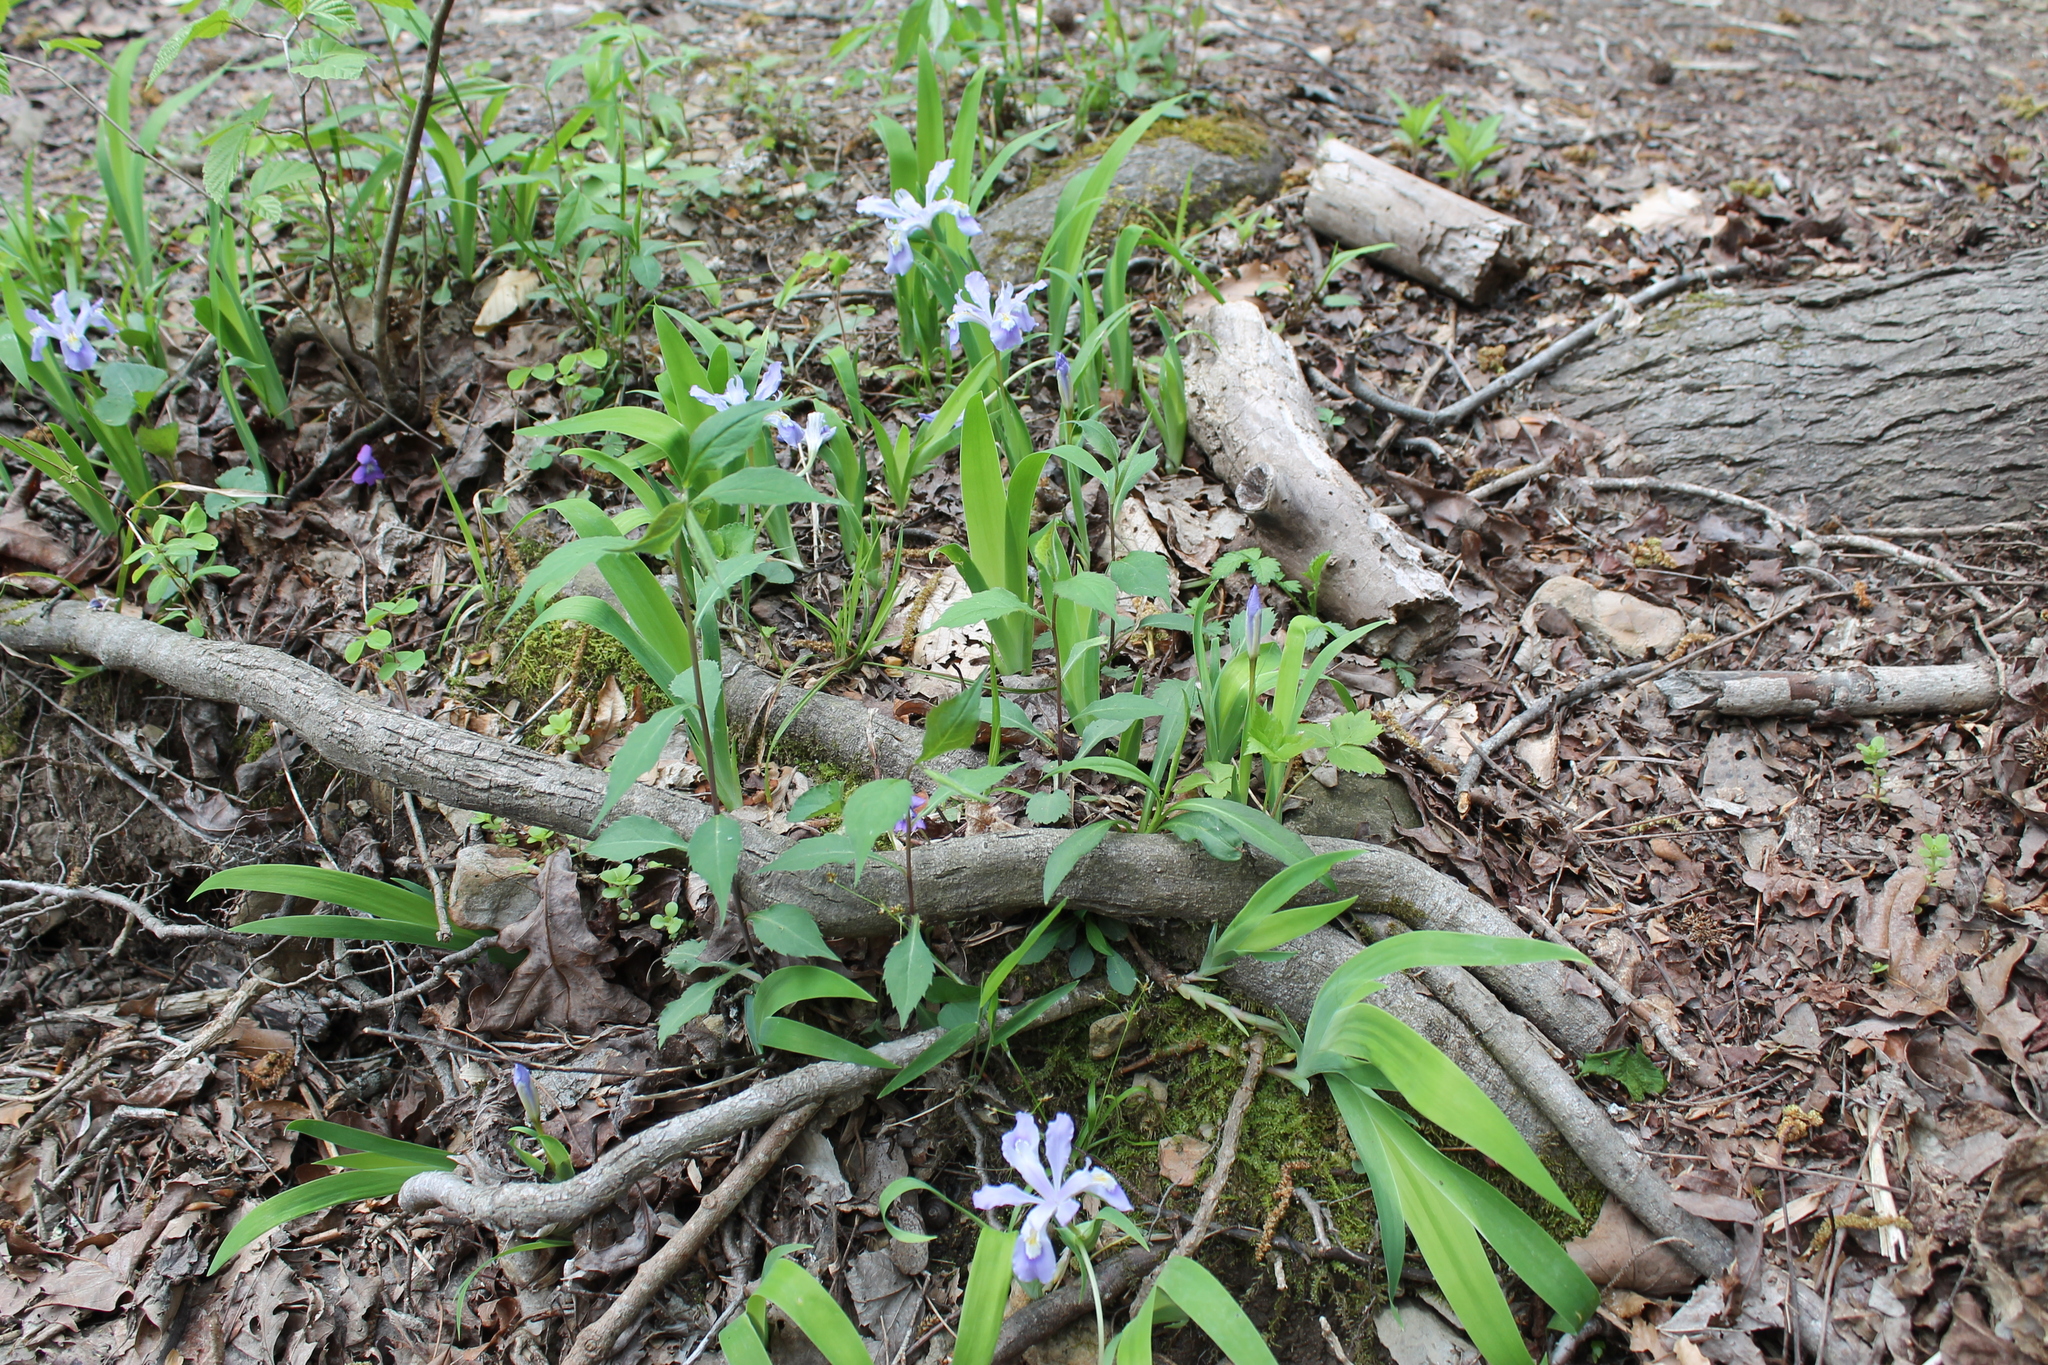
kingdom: Plantae
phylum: Tracheophyta
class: Liliopsida
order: Asparagales
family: Iridaceae
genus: Iris
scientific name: Iris cristata
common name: Crested iris
